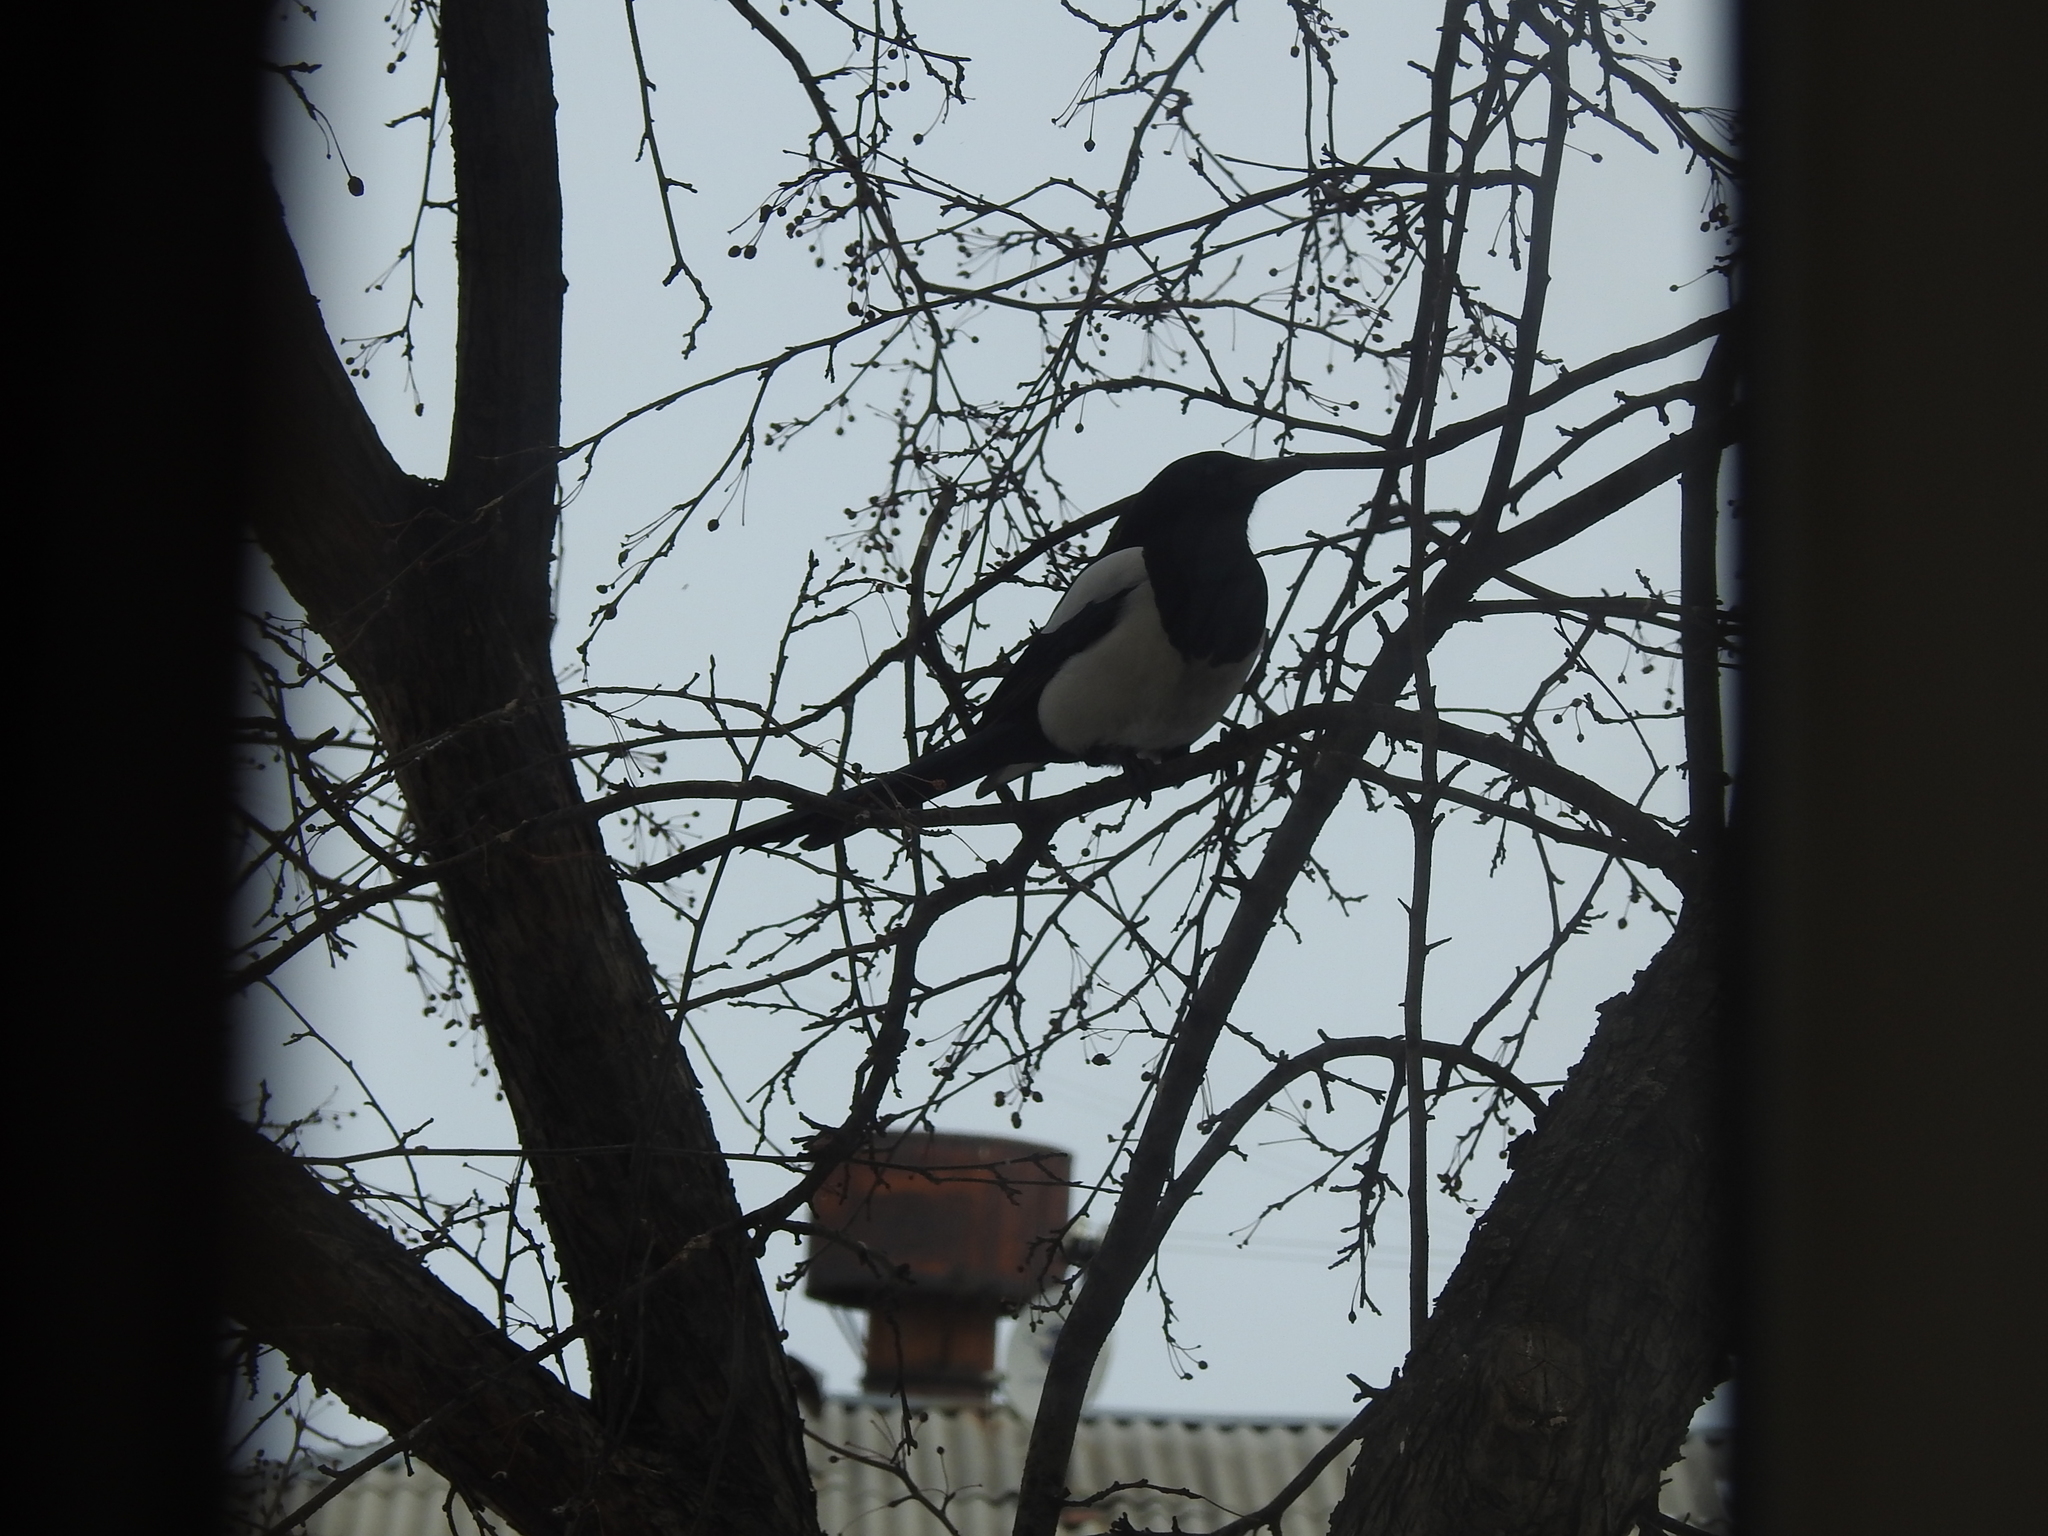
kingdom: Animalia
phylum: Chordata
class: Aves
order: Passeriformes
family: Corvidae
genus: Pica
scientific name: Pica pica
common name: Eurasian magpie
